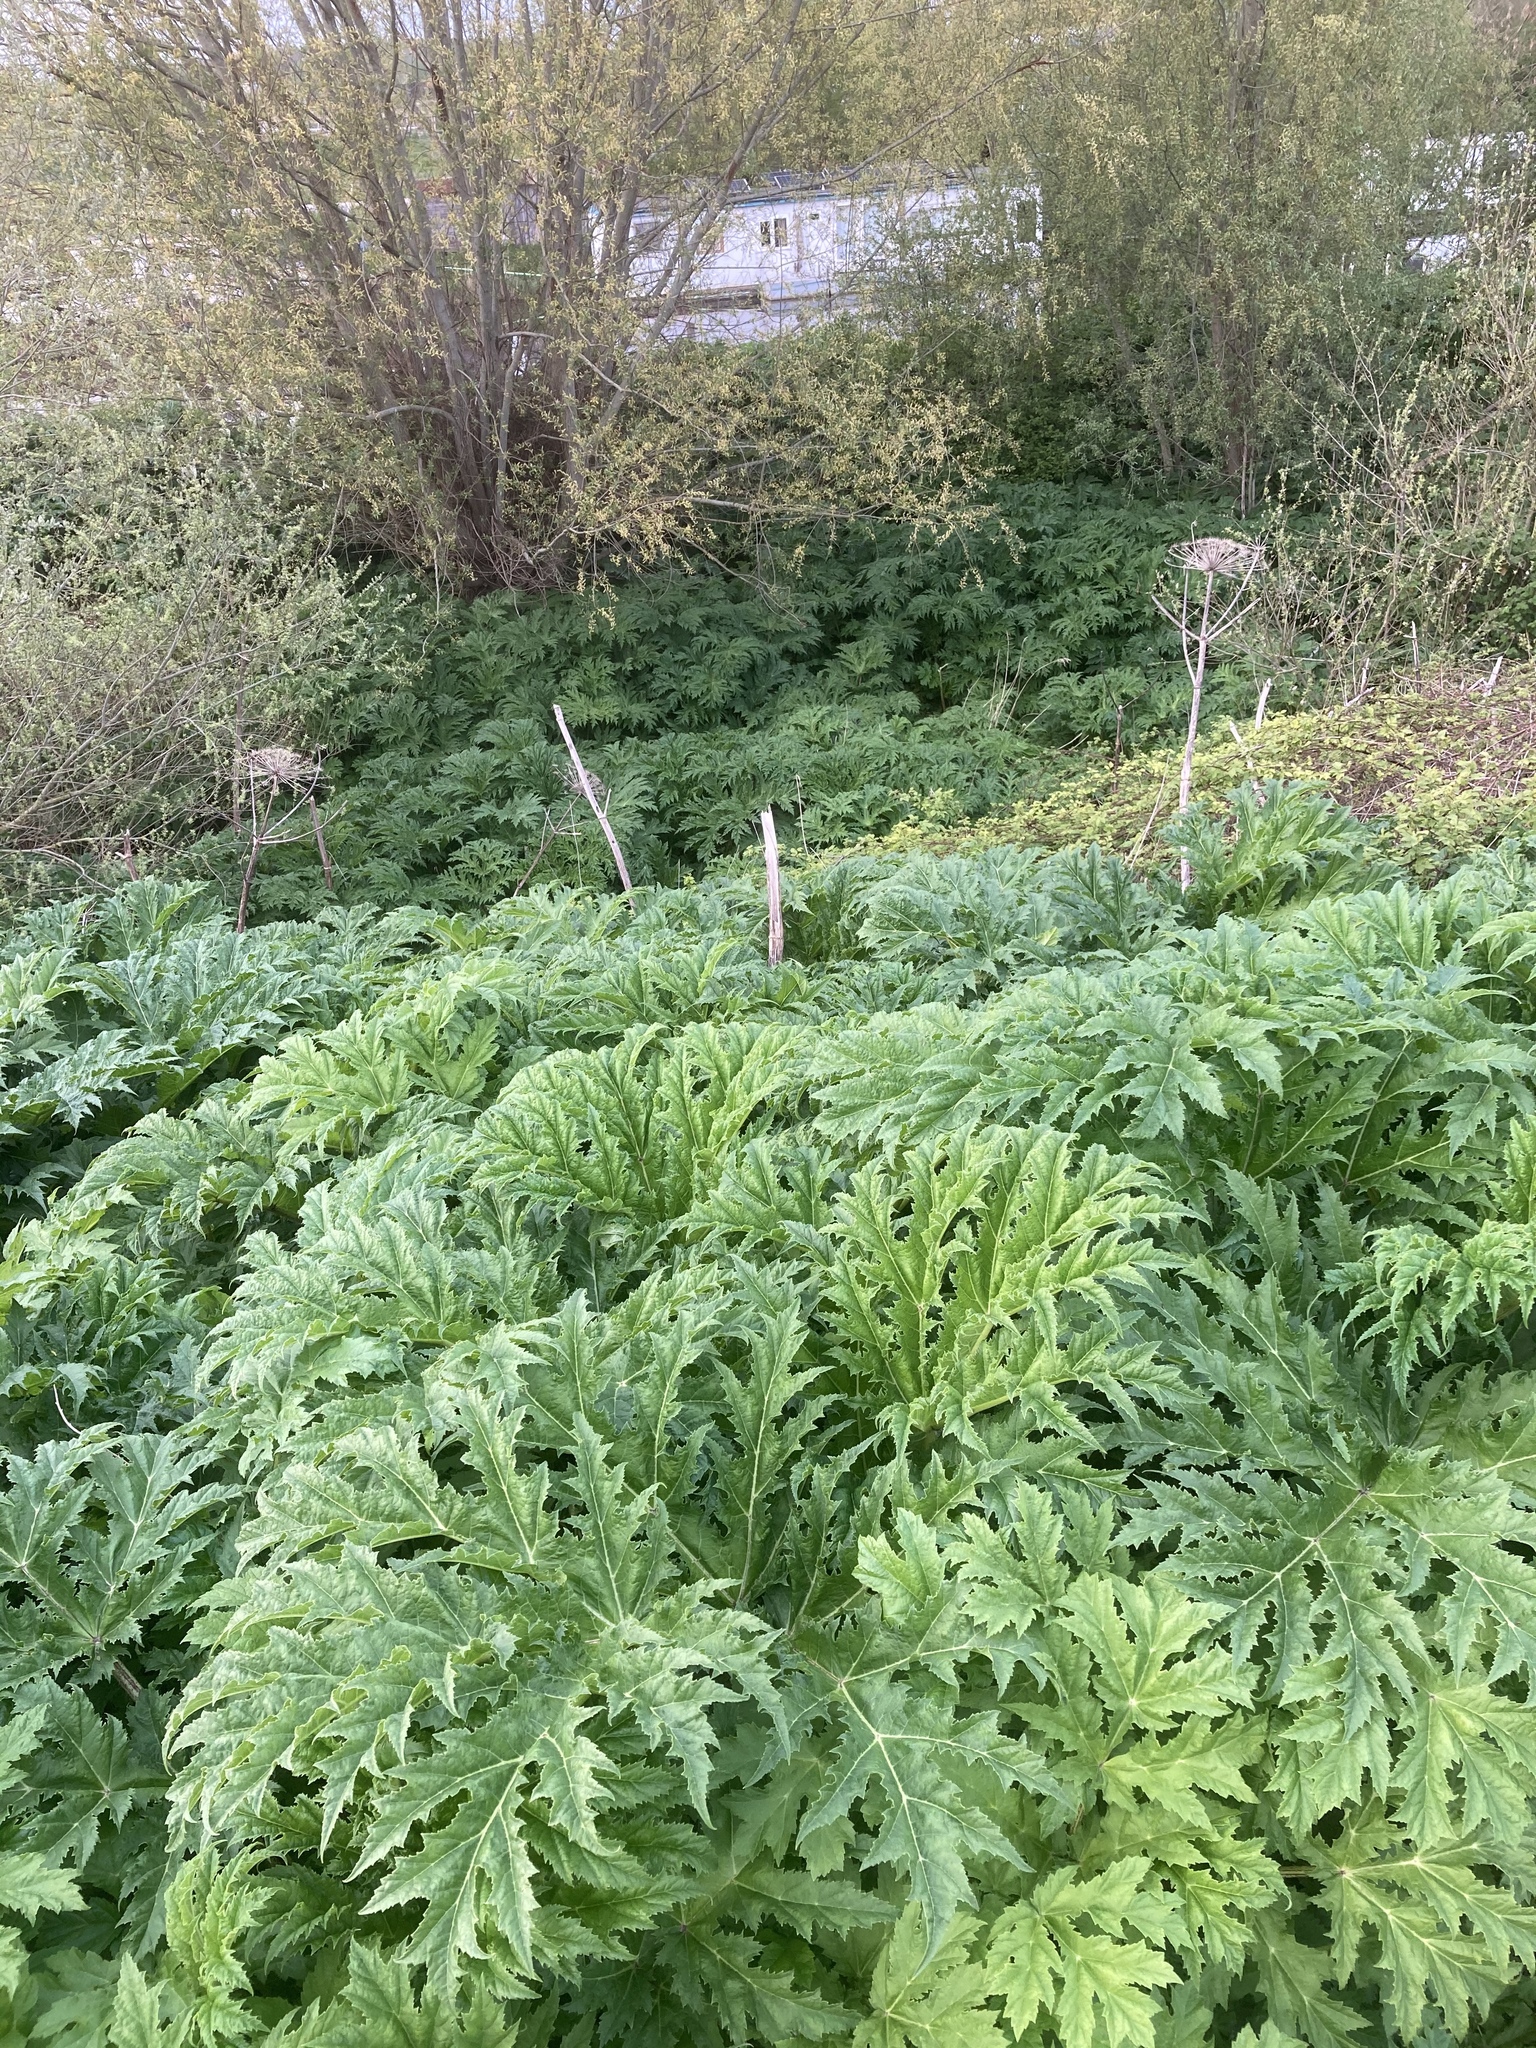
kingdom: Plantae
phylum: Tracheophyta
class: Magnoliopsida
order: Apiales
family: Apiaceae
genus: Heracleum
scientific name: Heracleum mantegazzianum
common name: Giant hogweed
